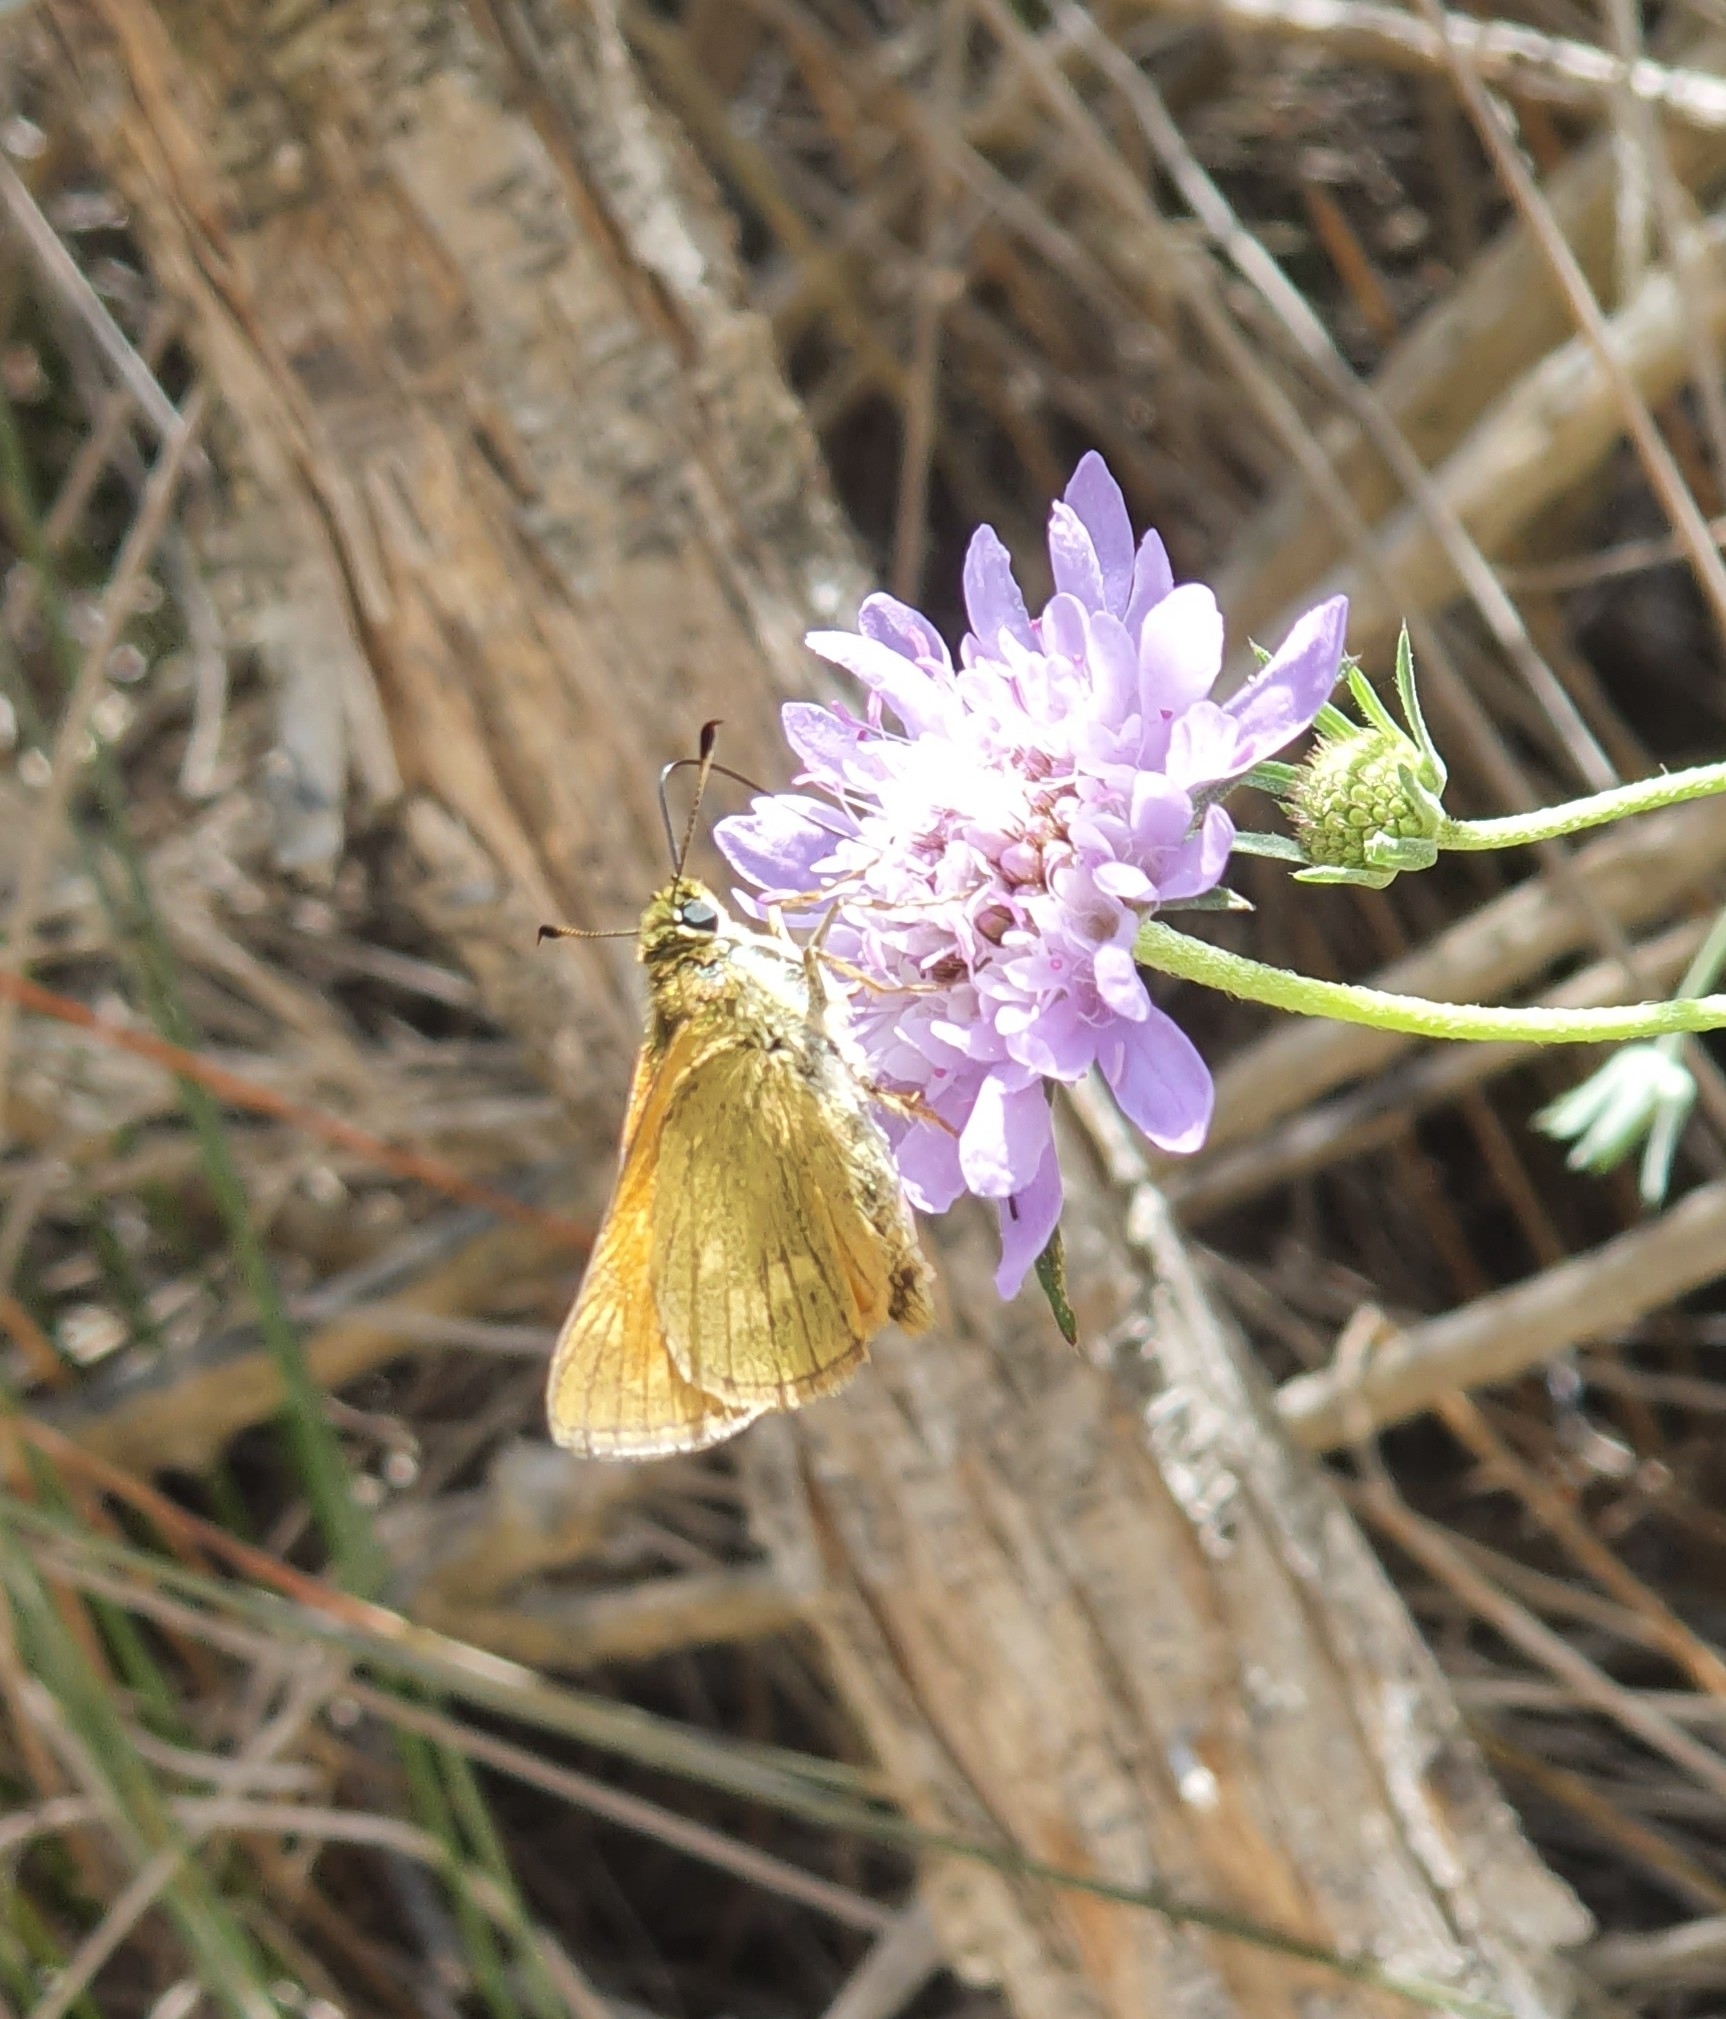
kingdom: Animalia
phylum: Arthropoda
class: Insecta
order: Lepidoptera
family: Hesperiidae
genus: Ochlodes
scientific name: Ochlodes venata
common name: Large skipper
